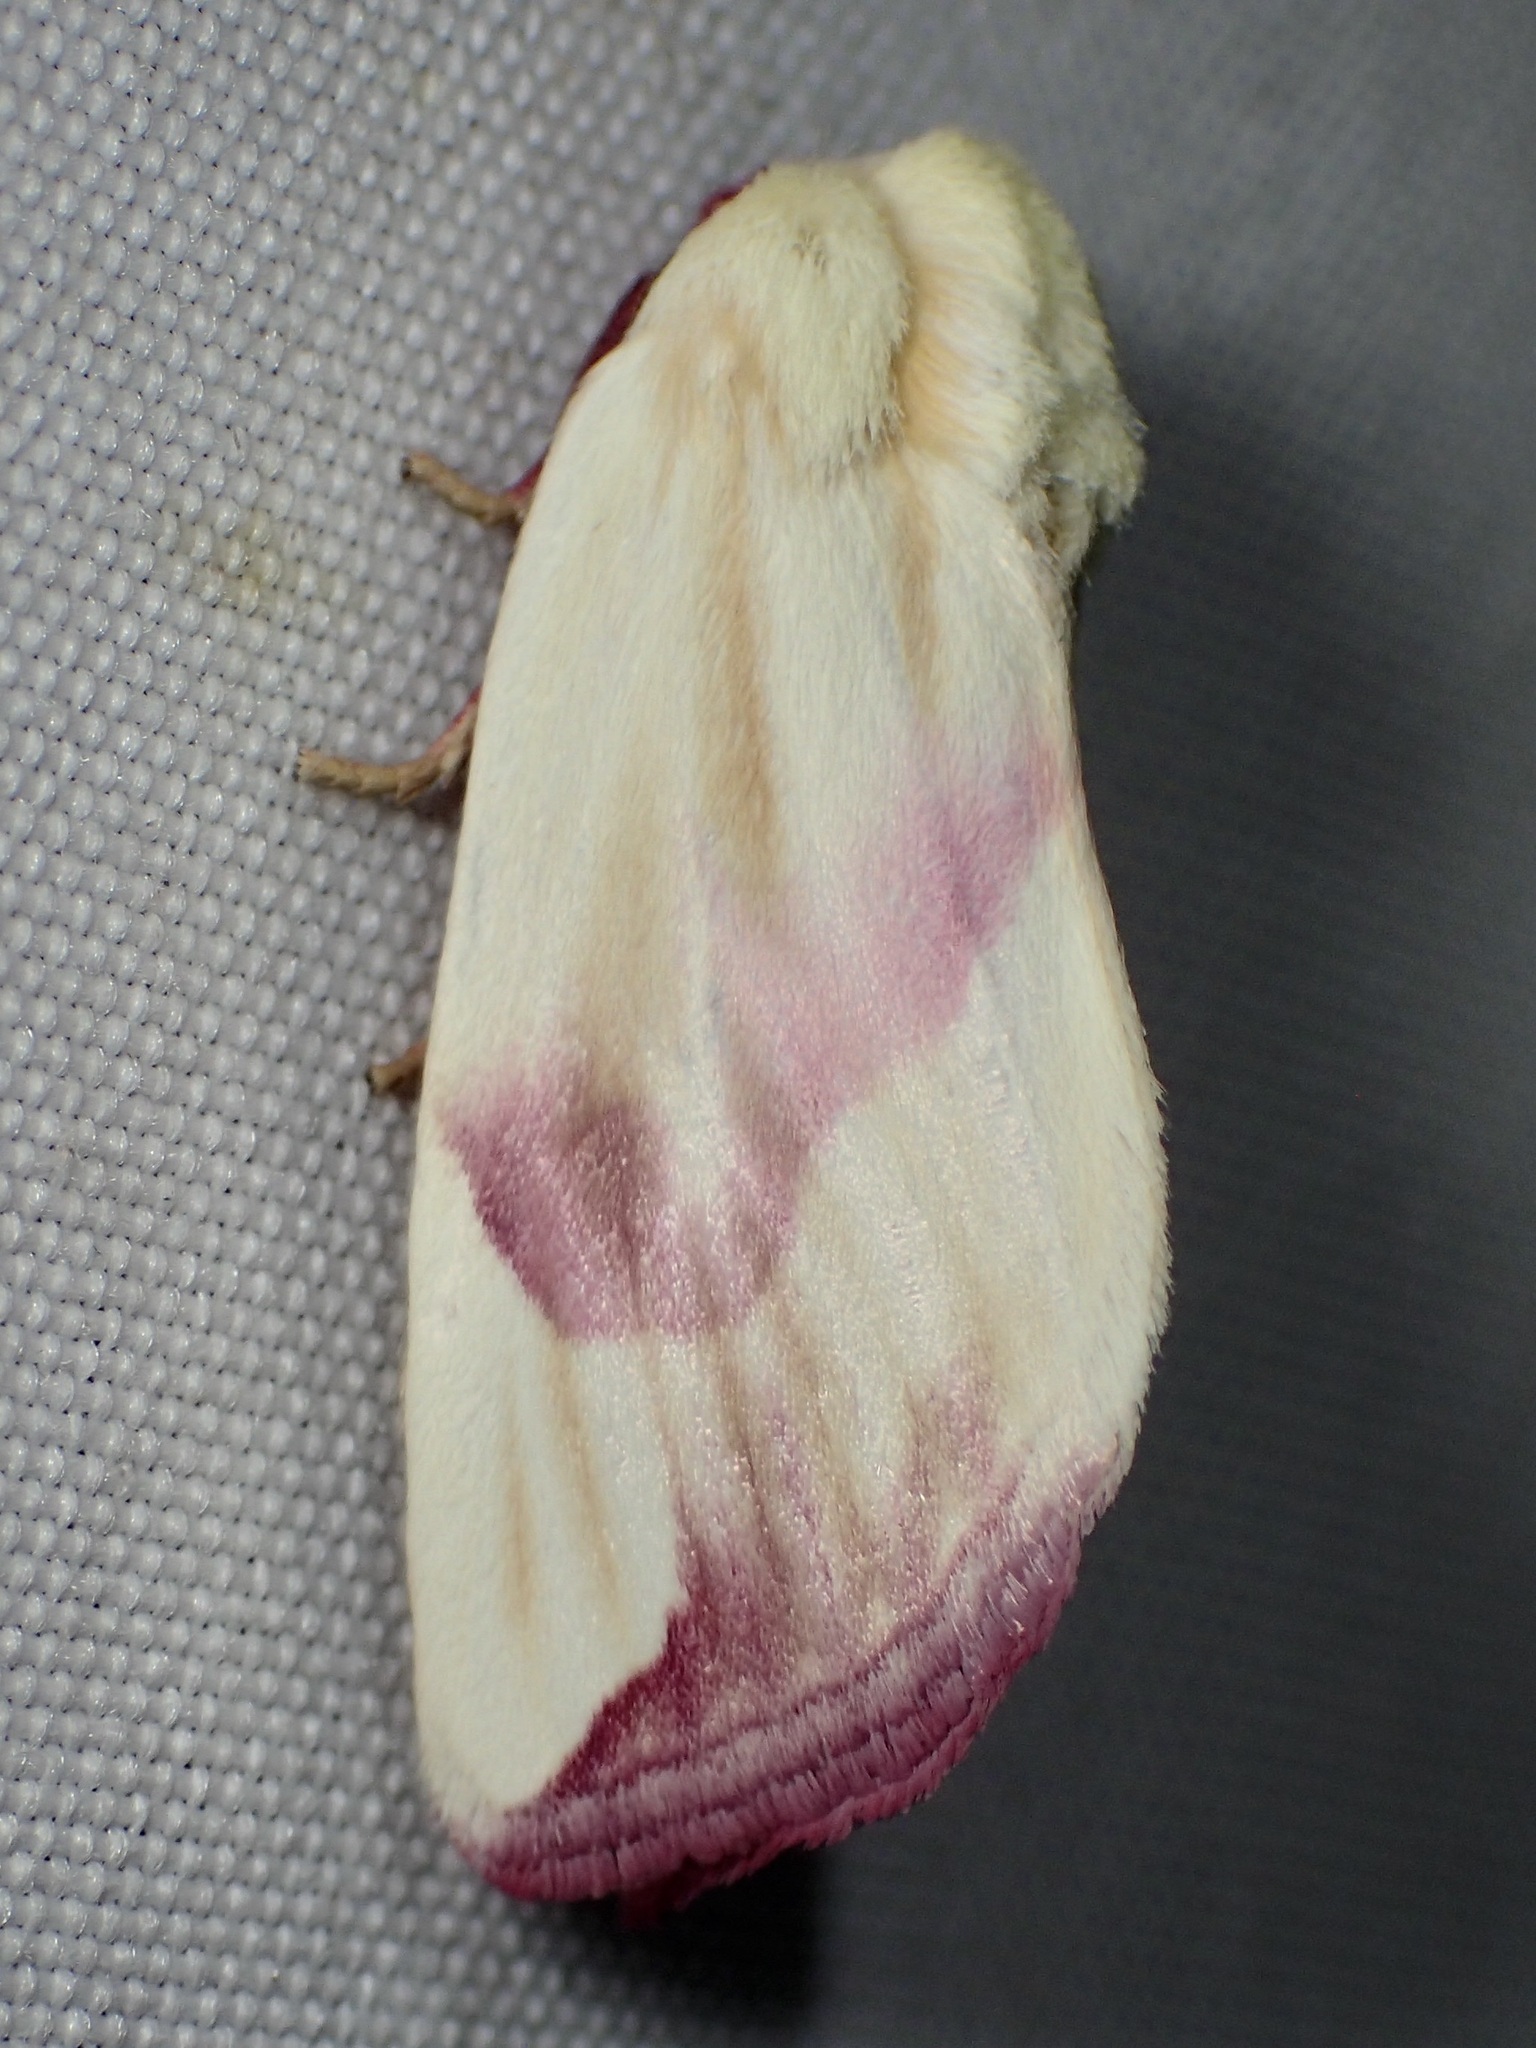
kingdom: Animalia
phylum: Arthropoda
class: Insecta
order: Lepidoptera
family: Noctuidae
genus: Thurberiphaga
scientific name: Thurberiphaga diffusa
